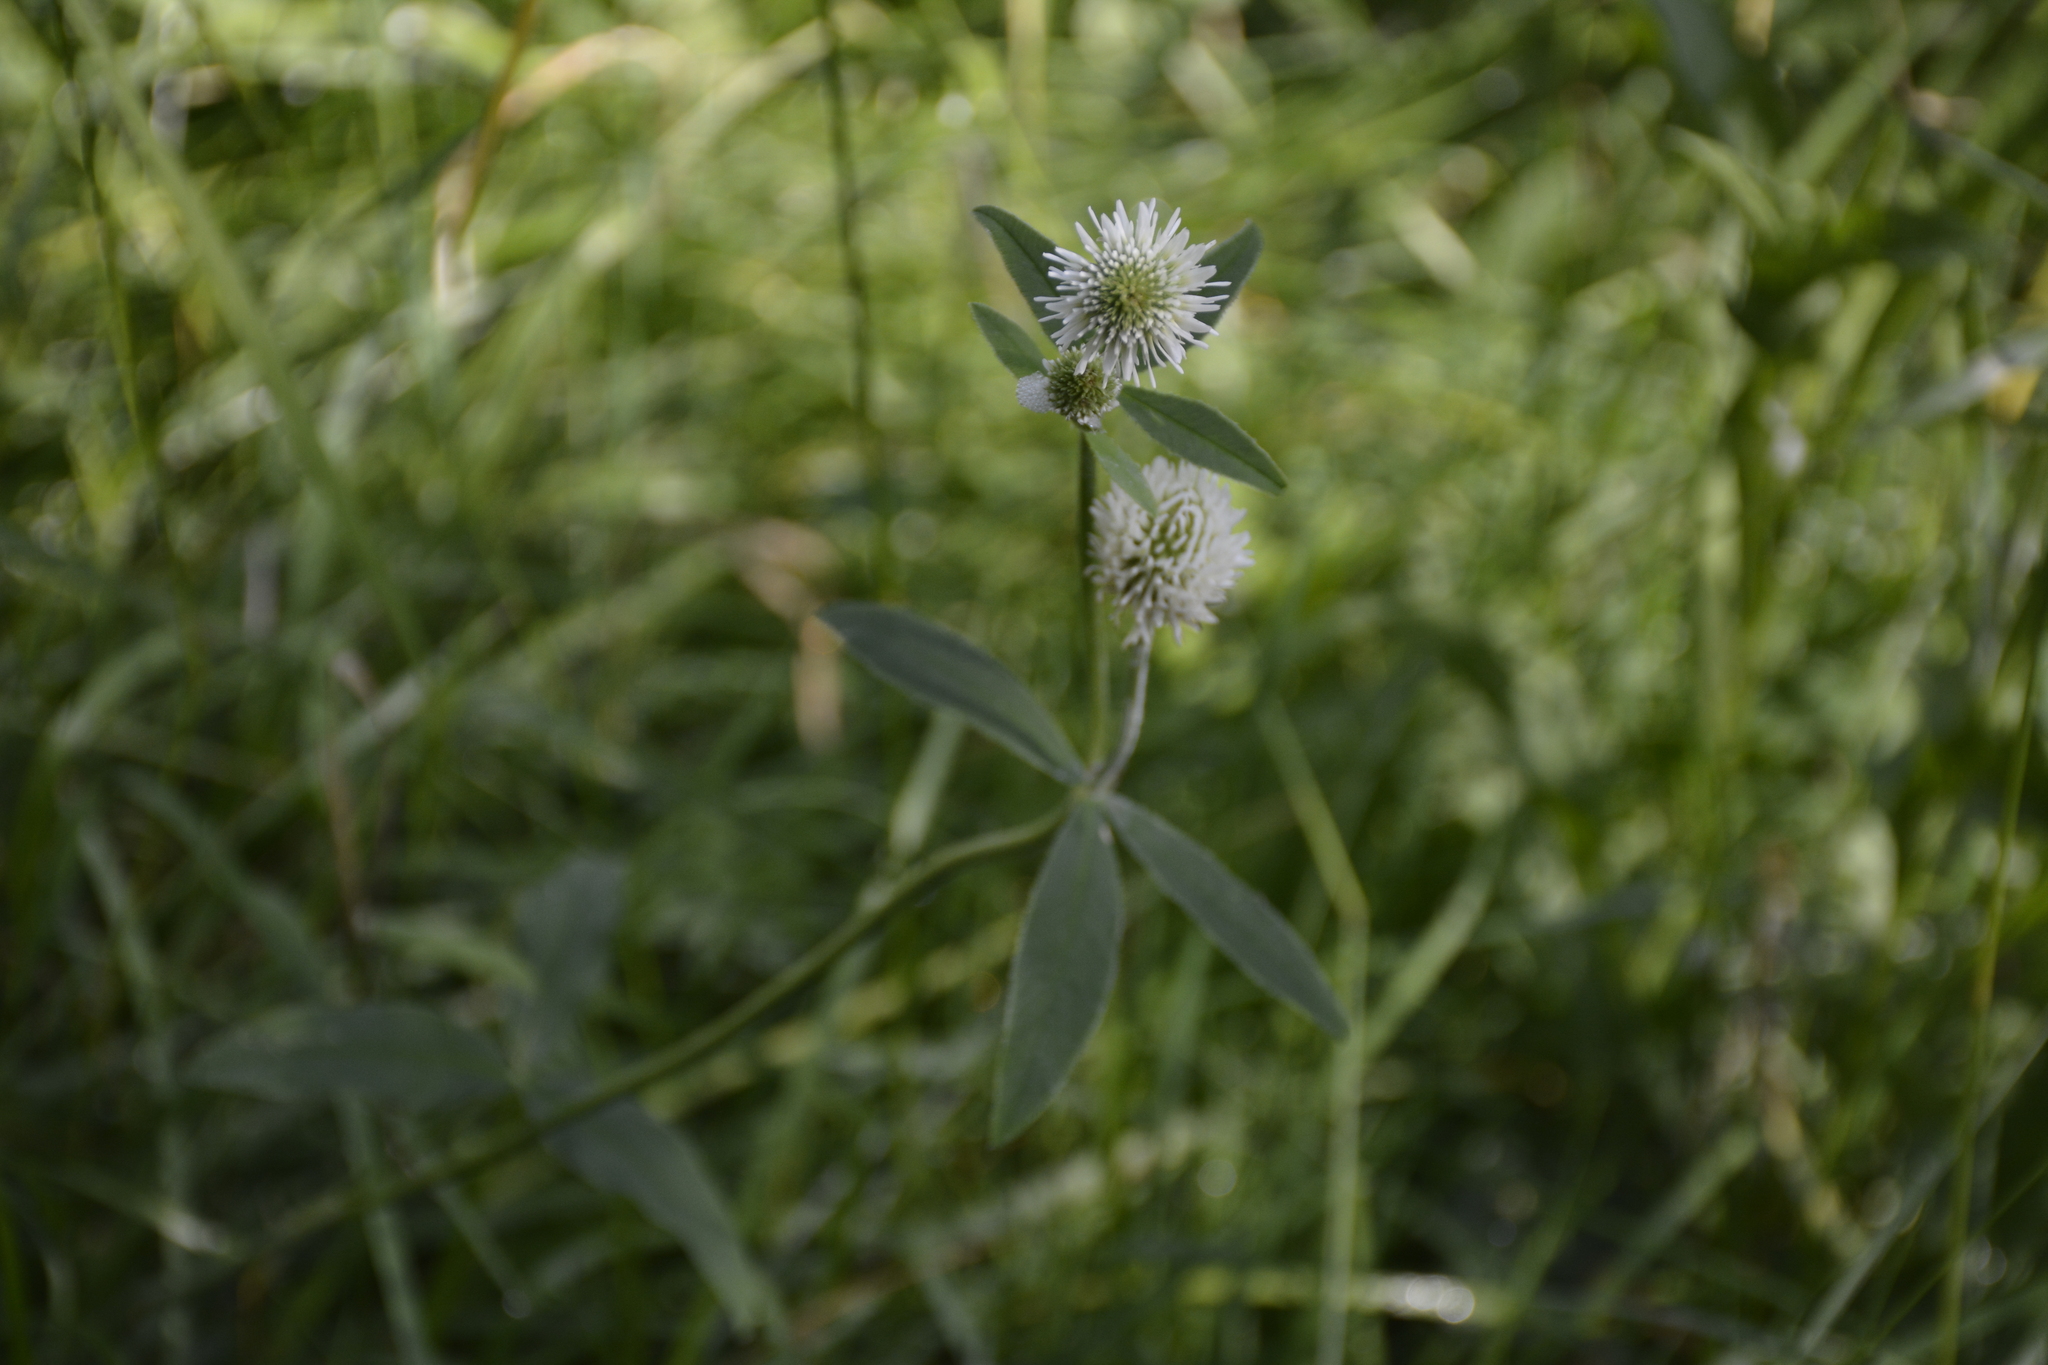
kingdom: Plantae
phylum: Tracheophyta
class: Magnoliopsida
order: Fabales
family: Fabaceae
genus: Trifolium
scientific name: Trifolium montanum
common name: Mountain clover
